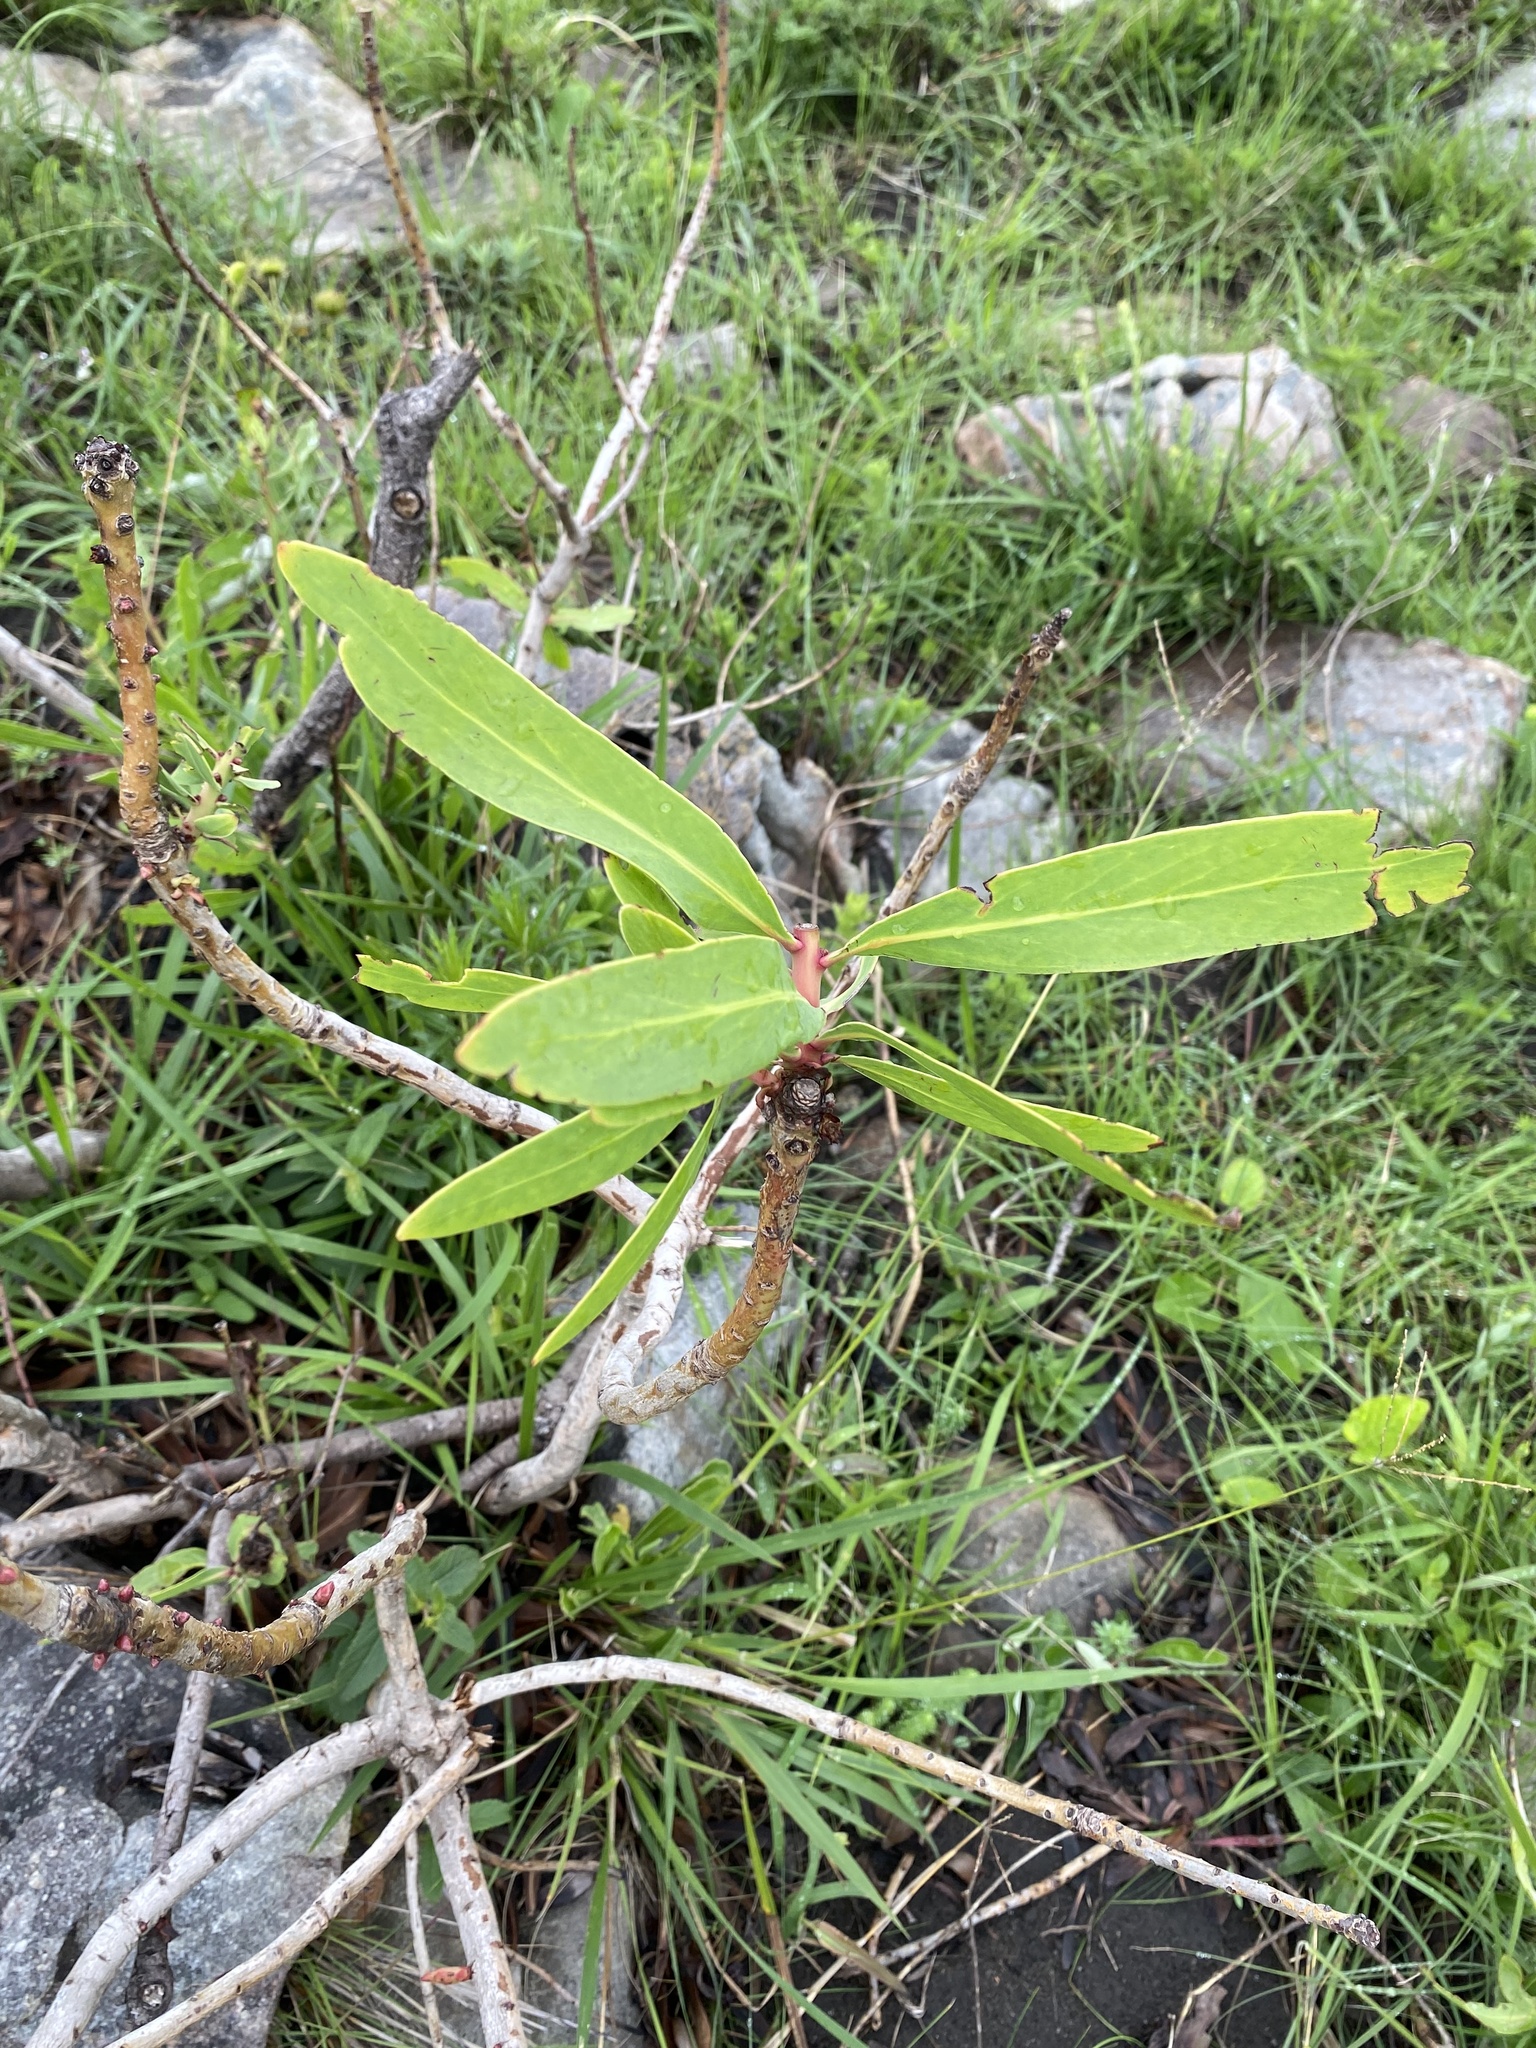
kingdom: Plantae
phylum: Tracheophyta
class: Magnoliopsida
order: Proteales
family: Proteaceae
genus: Protea
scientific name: Protea caffra
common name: Common sugarbush
